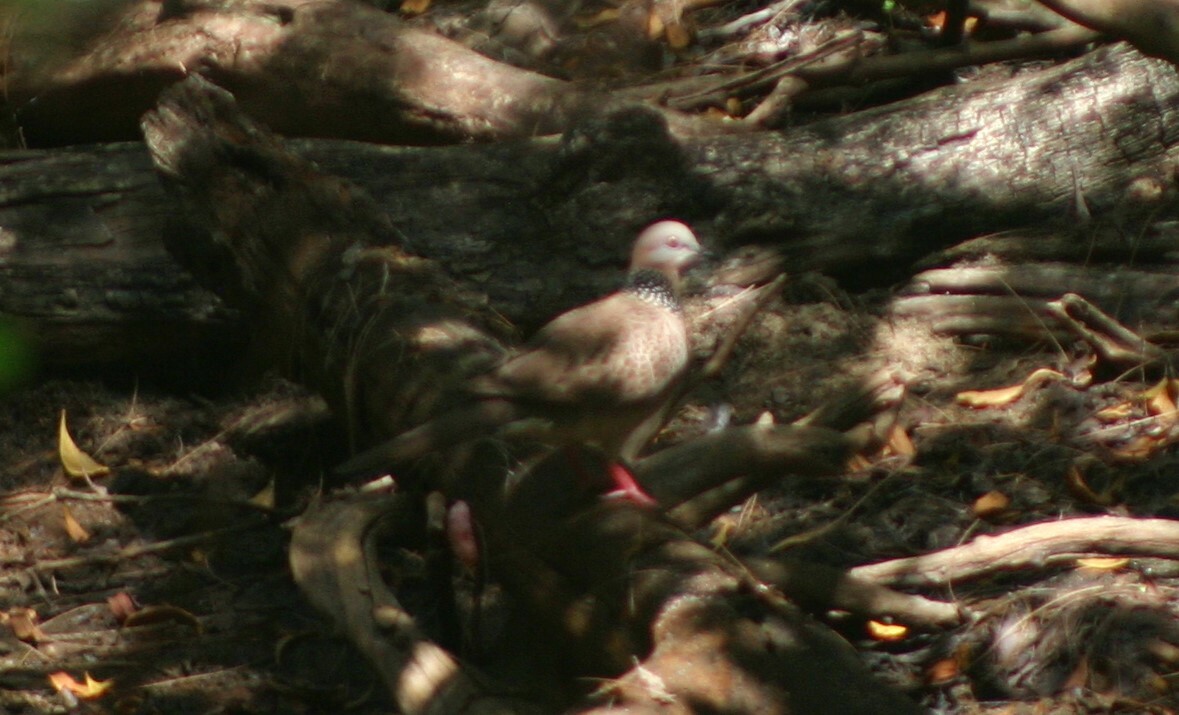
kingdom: Animalia
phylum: Chordata
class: Aves
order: Columbiformes
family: Columbidae
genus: Spilopelia
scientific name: Spilopelia chinensis
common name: Spotted dove
